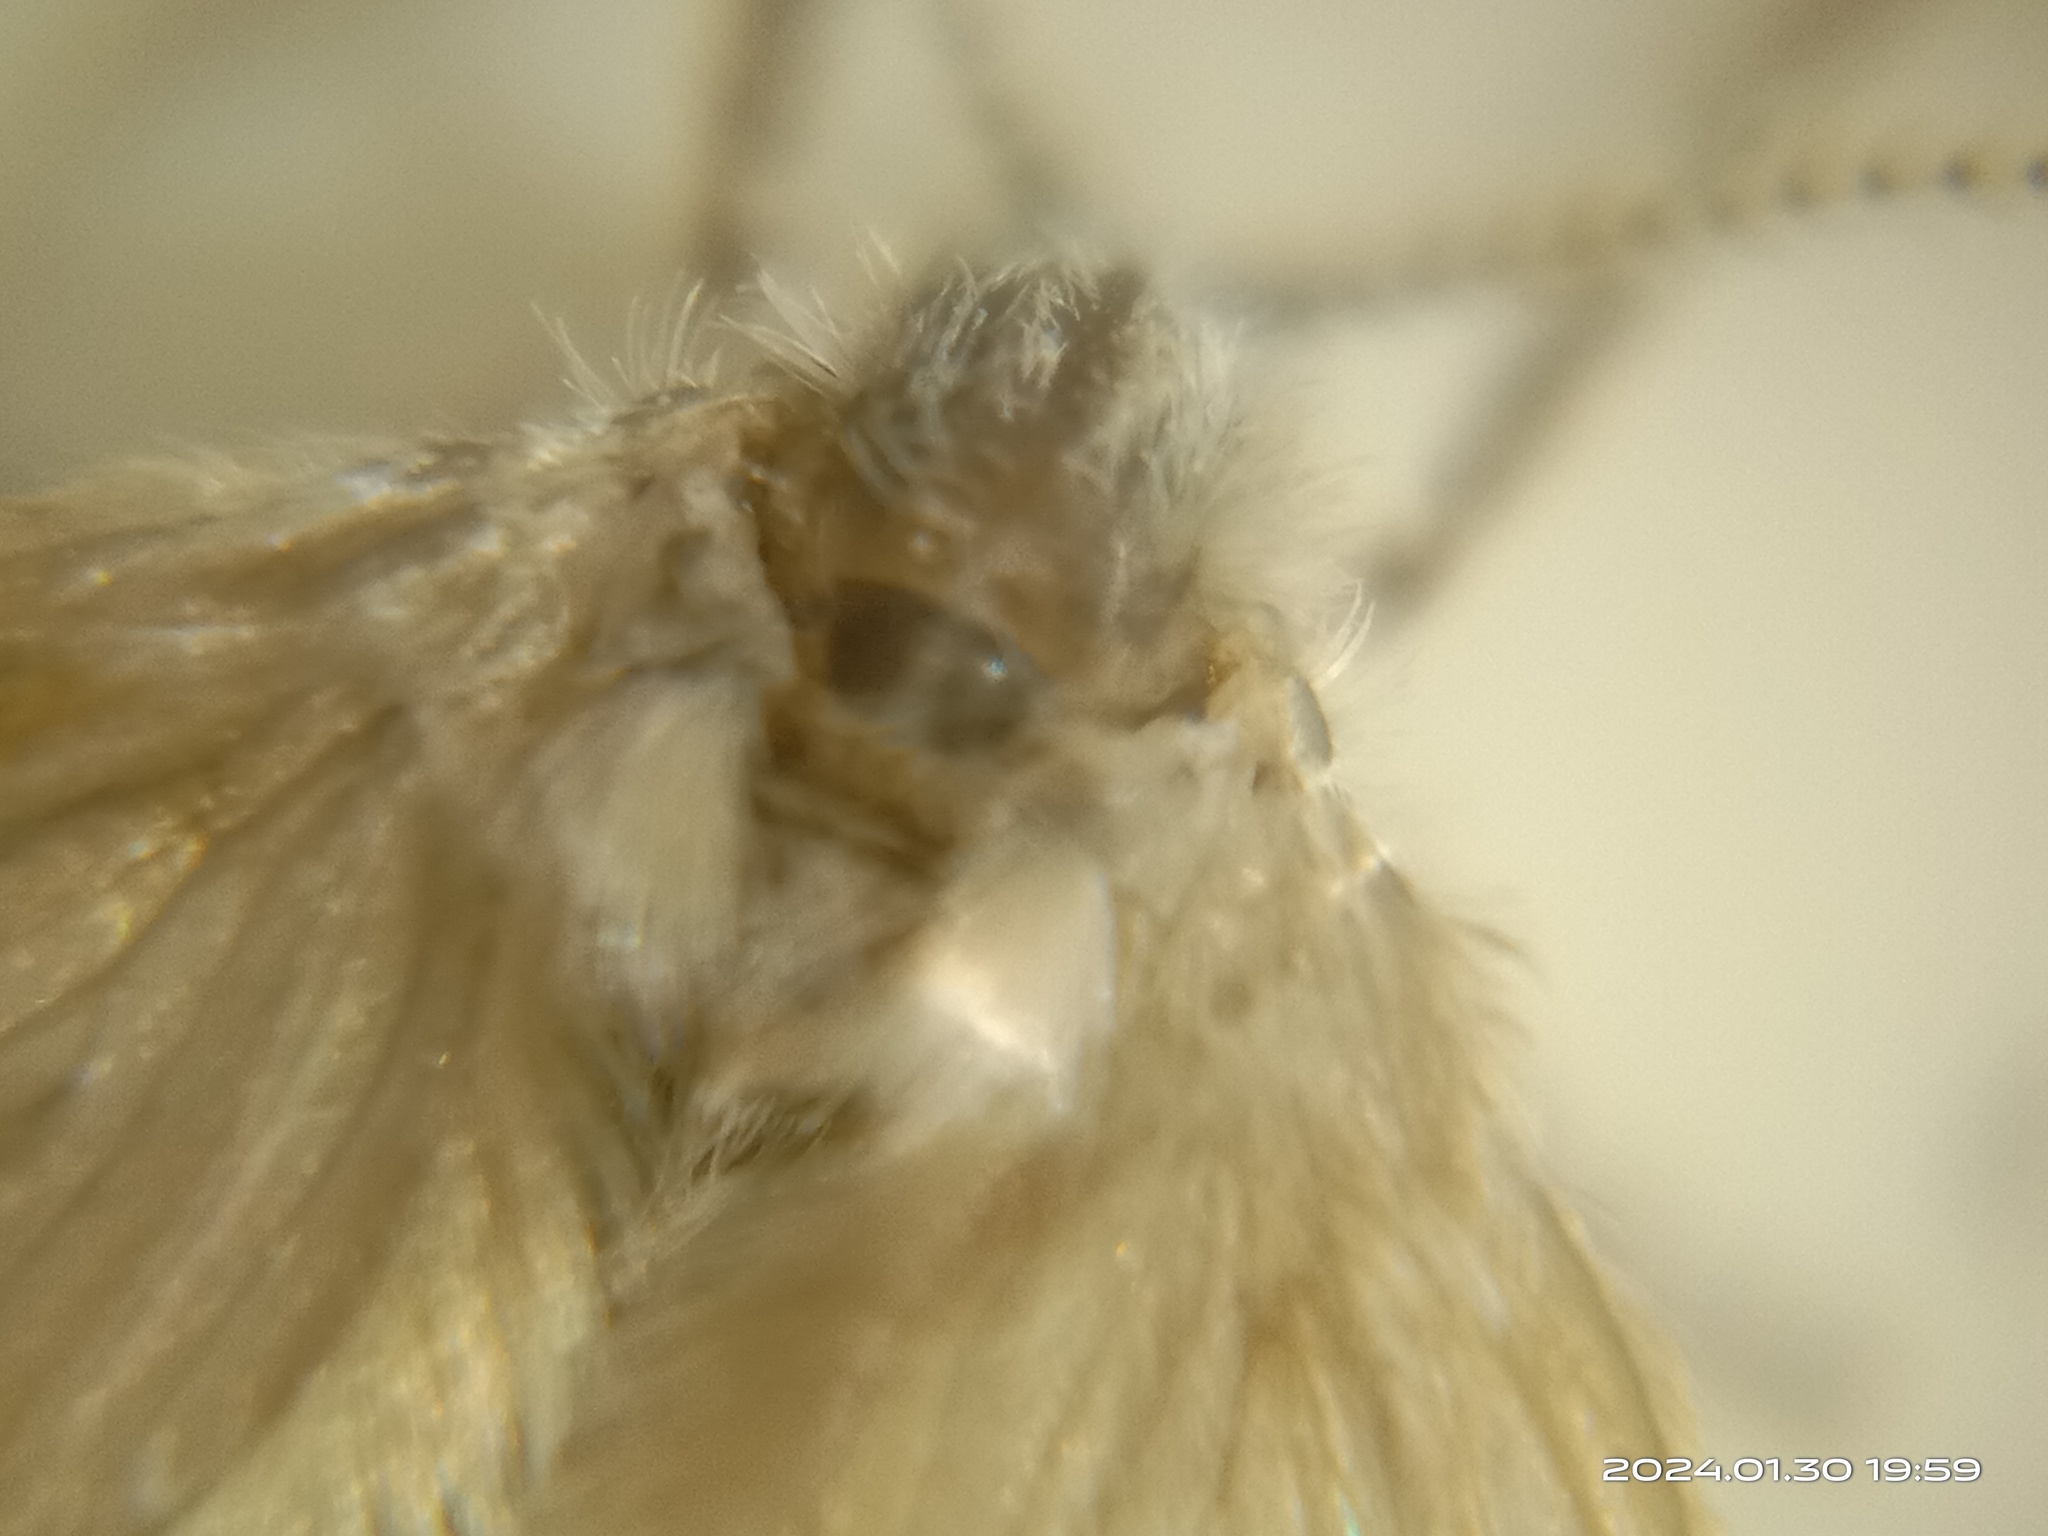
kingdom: Animalia
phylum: Arthropoda
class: Insecta
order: Diptera
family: Psychodidae
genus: Clogmia
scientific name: Clogmia albipunctatus
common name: White-spotted moth fly
